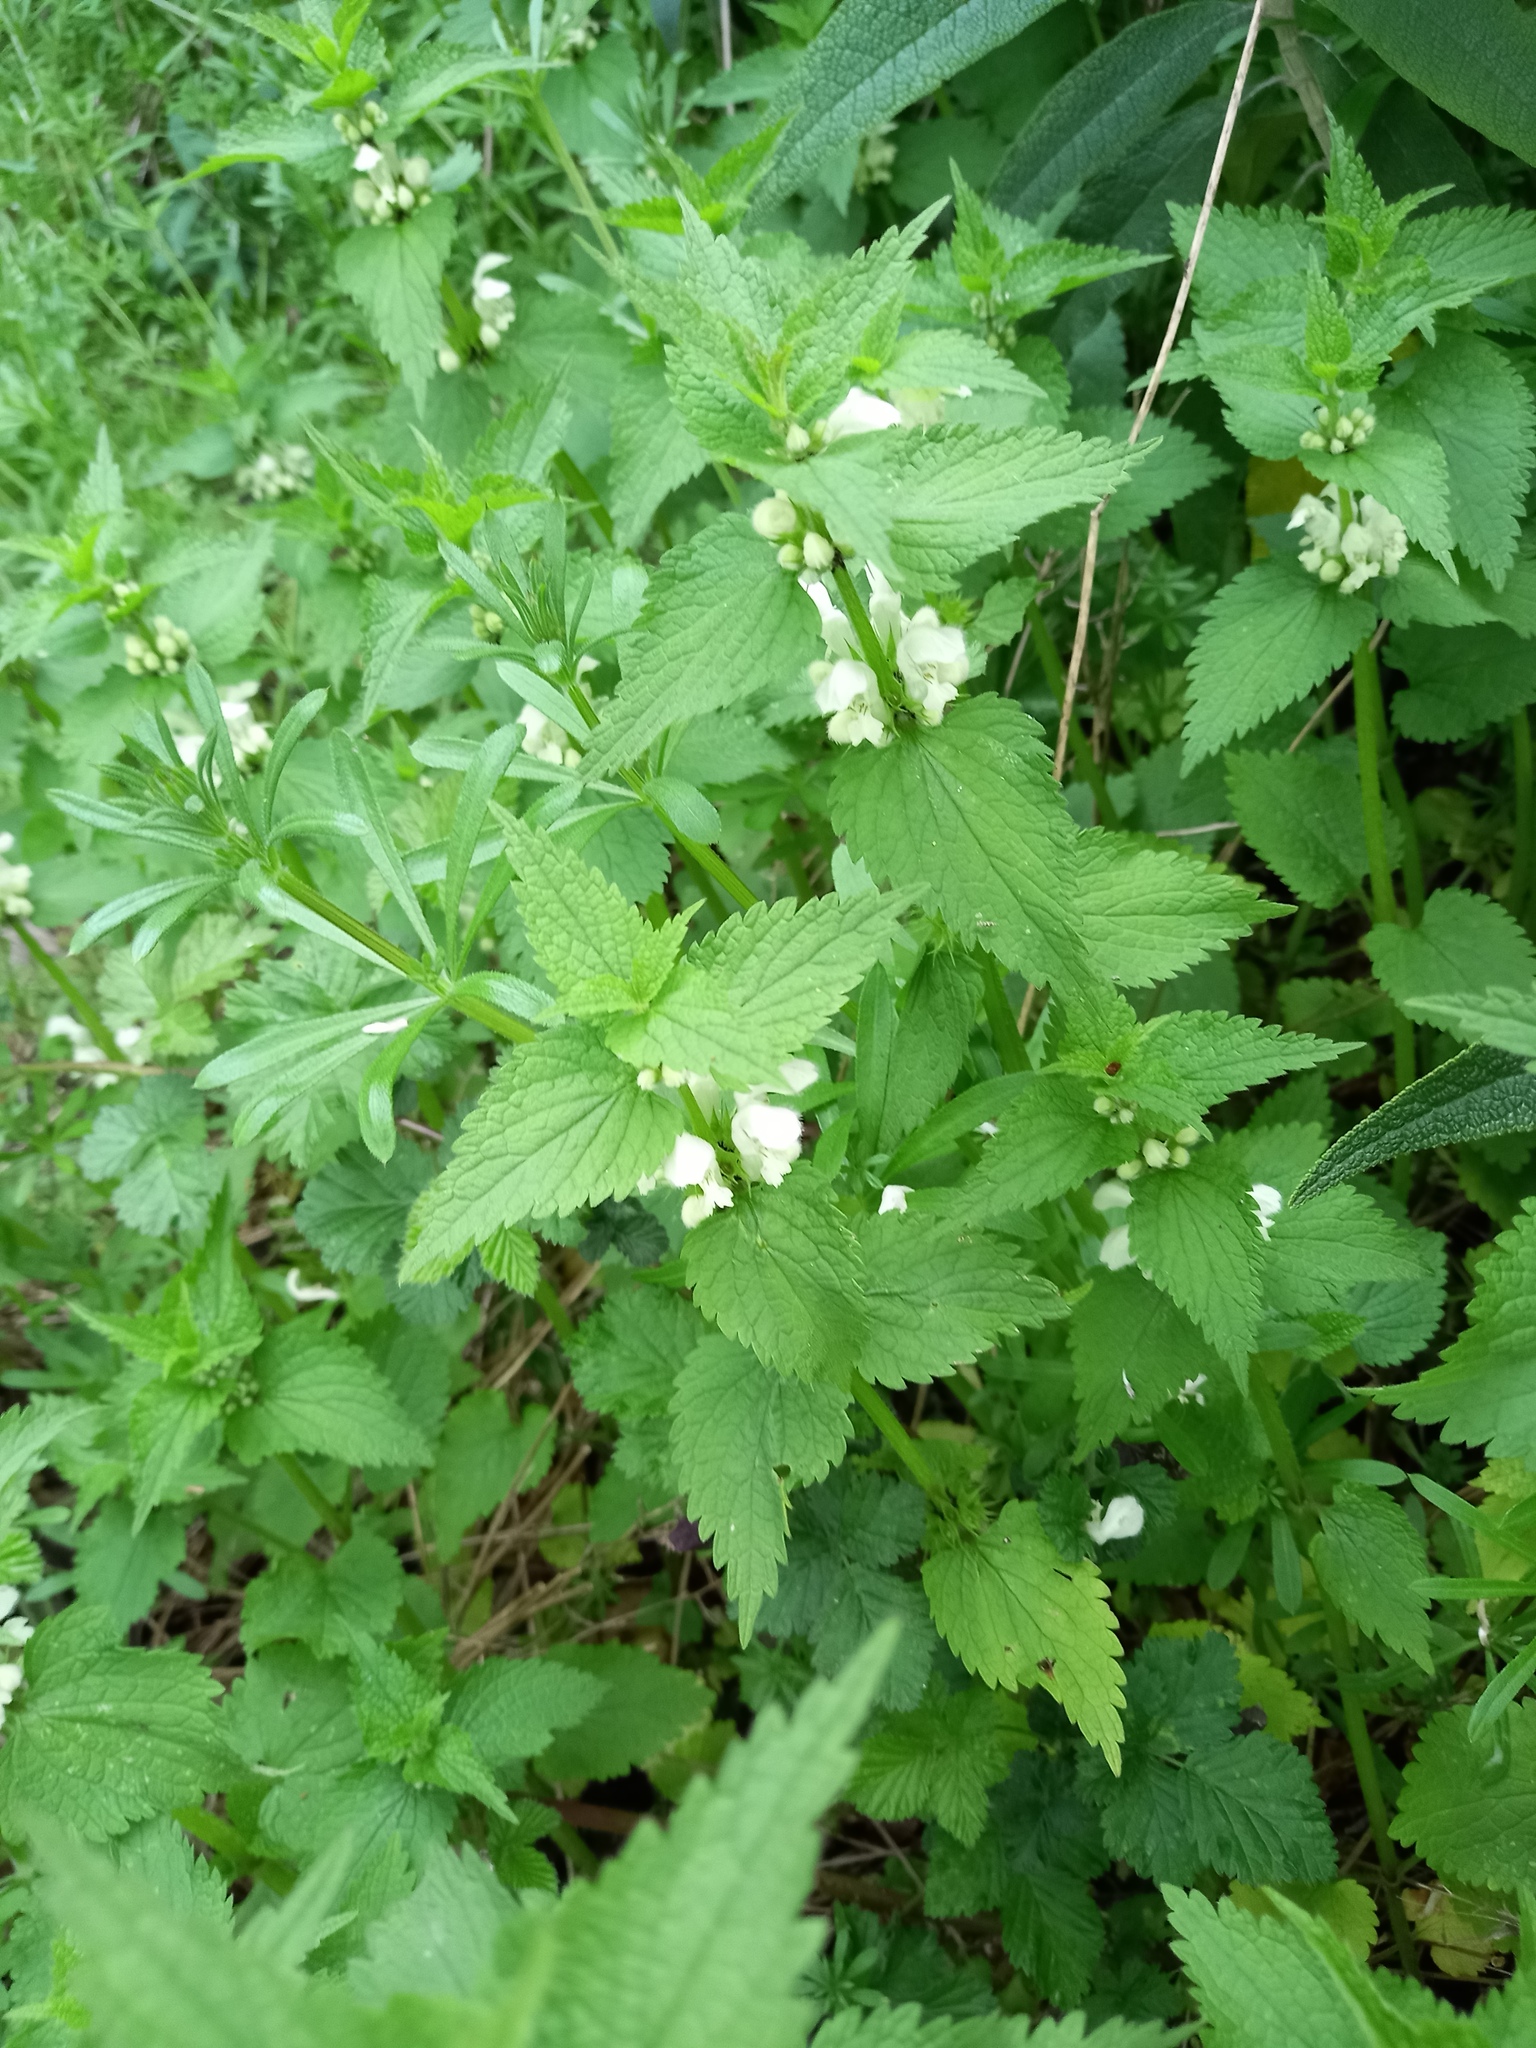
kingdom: Plantae
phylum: Tracheophyta
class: Magnoliopsida
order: Lamiales
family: Lamiaceae
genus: Lamium
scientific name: Lamium album
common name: White dead-nettle
